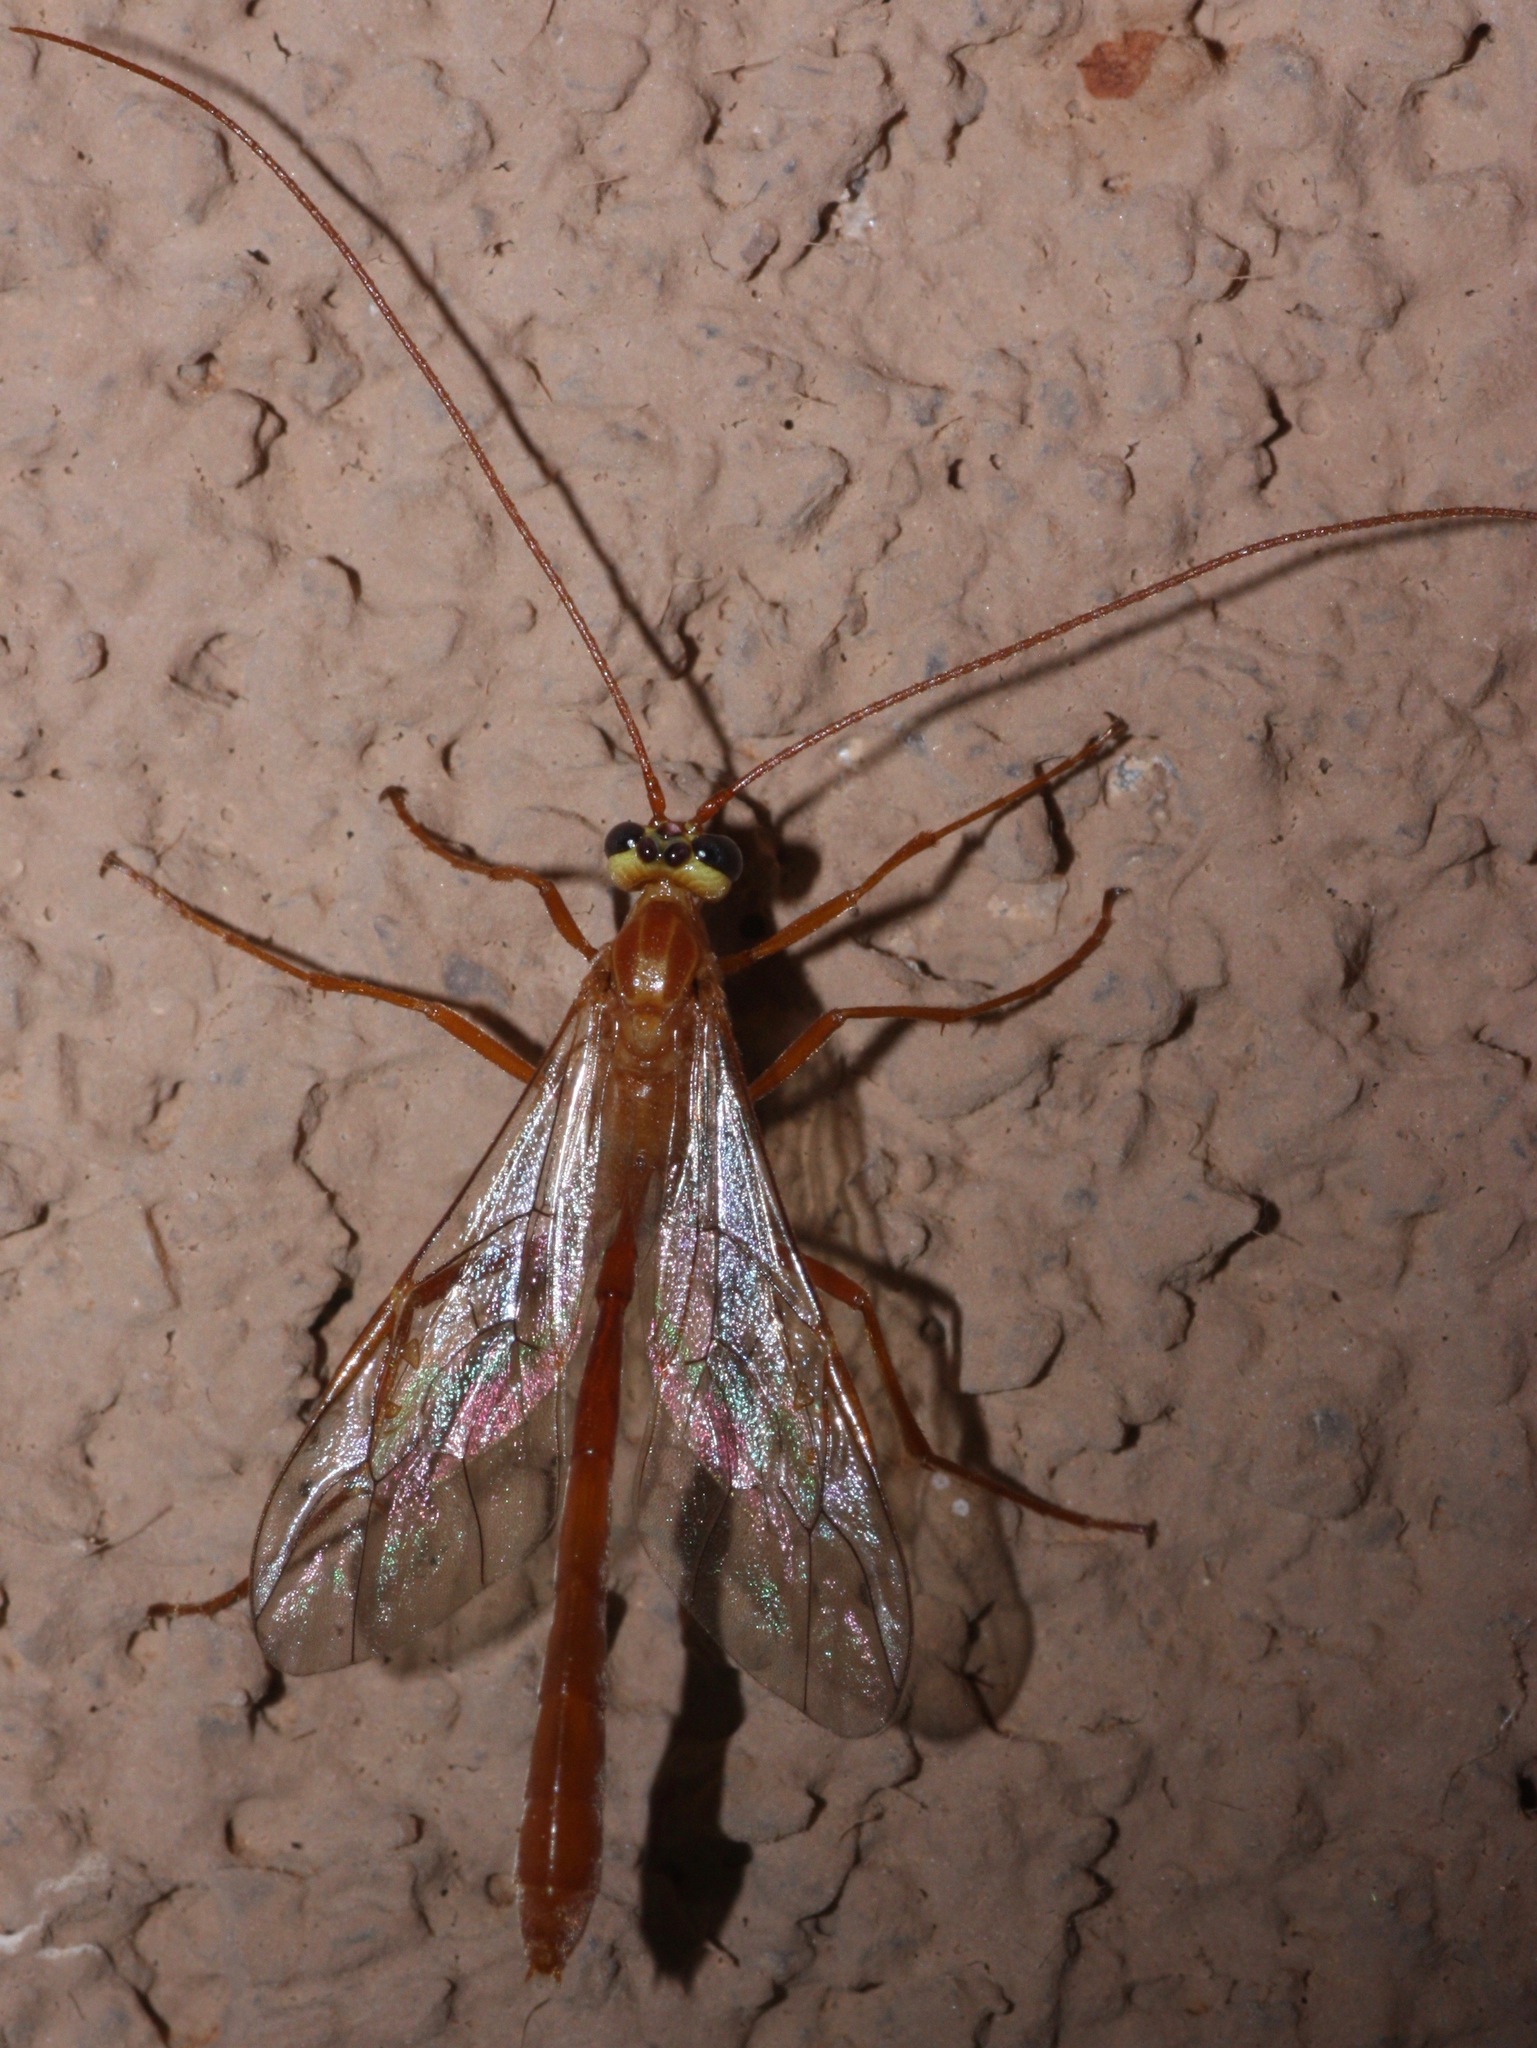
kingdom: Animalia
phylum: Arthropoda
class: Insecta
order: Hymenoptera
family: Ichneumonidae
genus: Enicospilus
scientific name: Enicospilus purgatus
